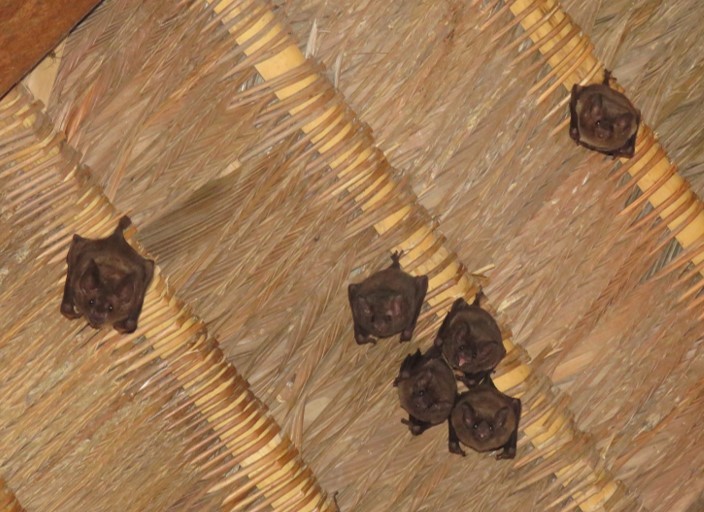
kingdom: Animalia
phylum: Chordata
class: Mammalia
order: Chiroptera
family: Phyllostomidae
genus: Glossophaga
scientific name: Glossophaga soricina
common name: Pallas's long-tongued bat
